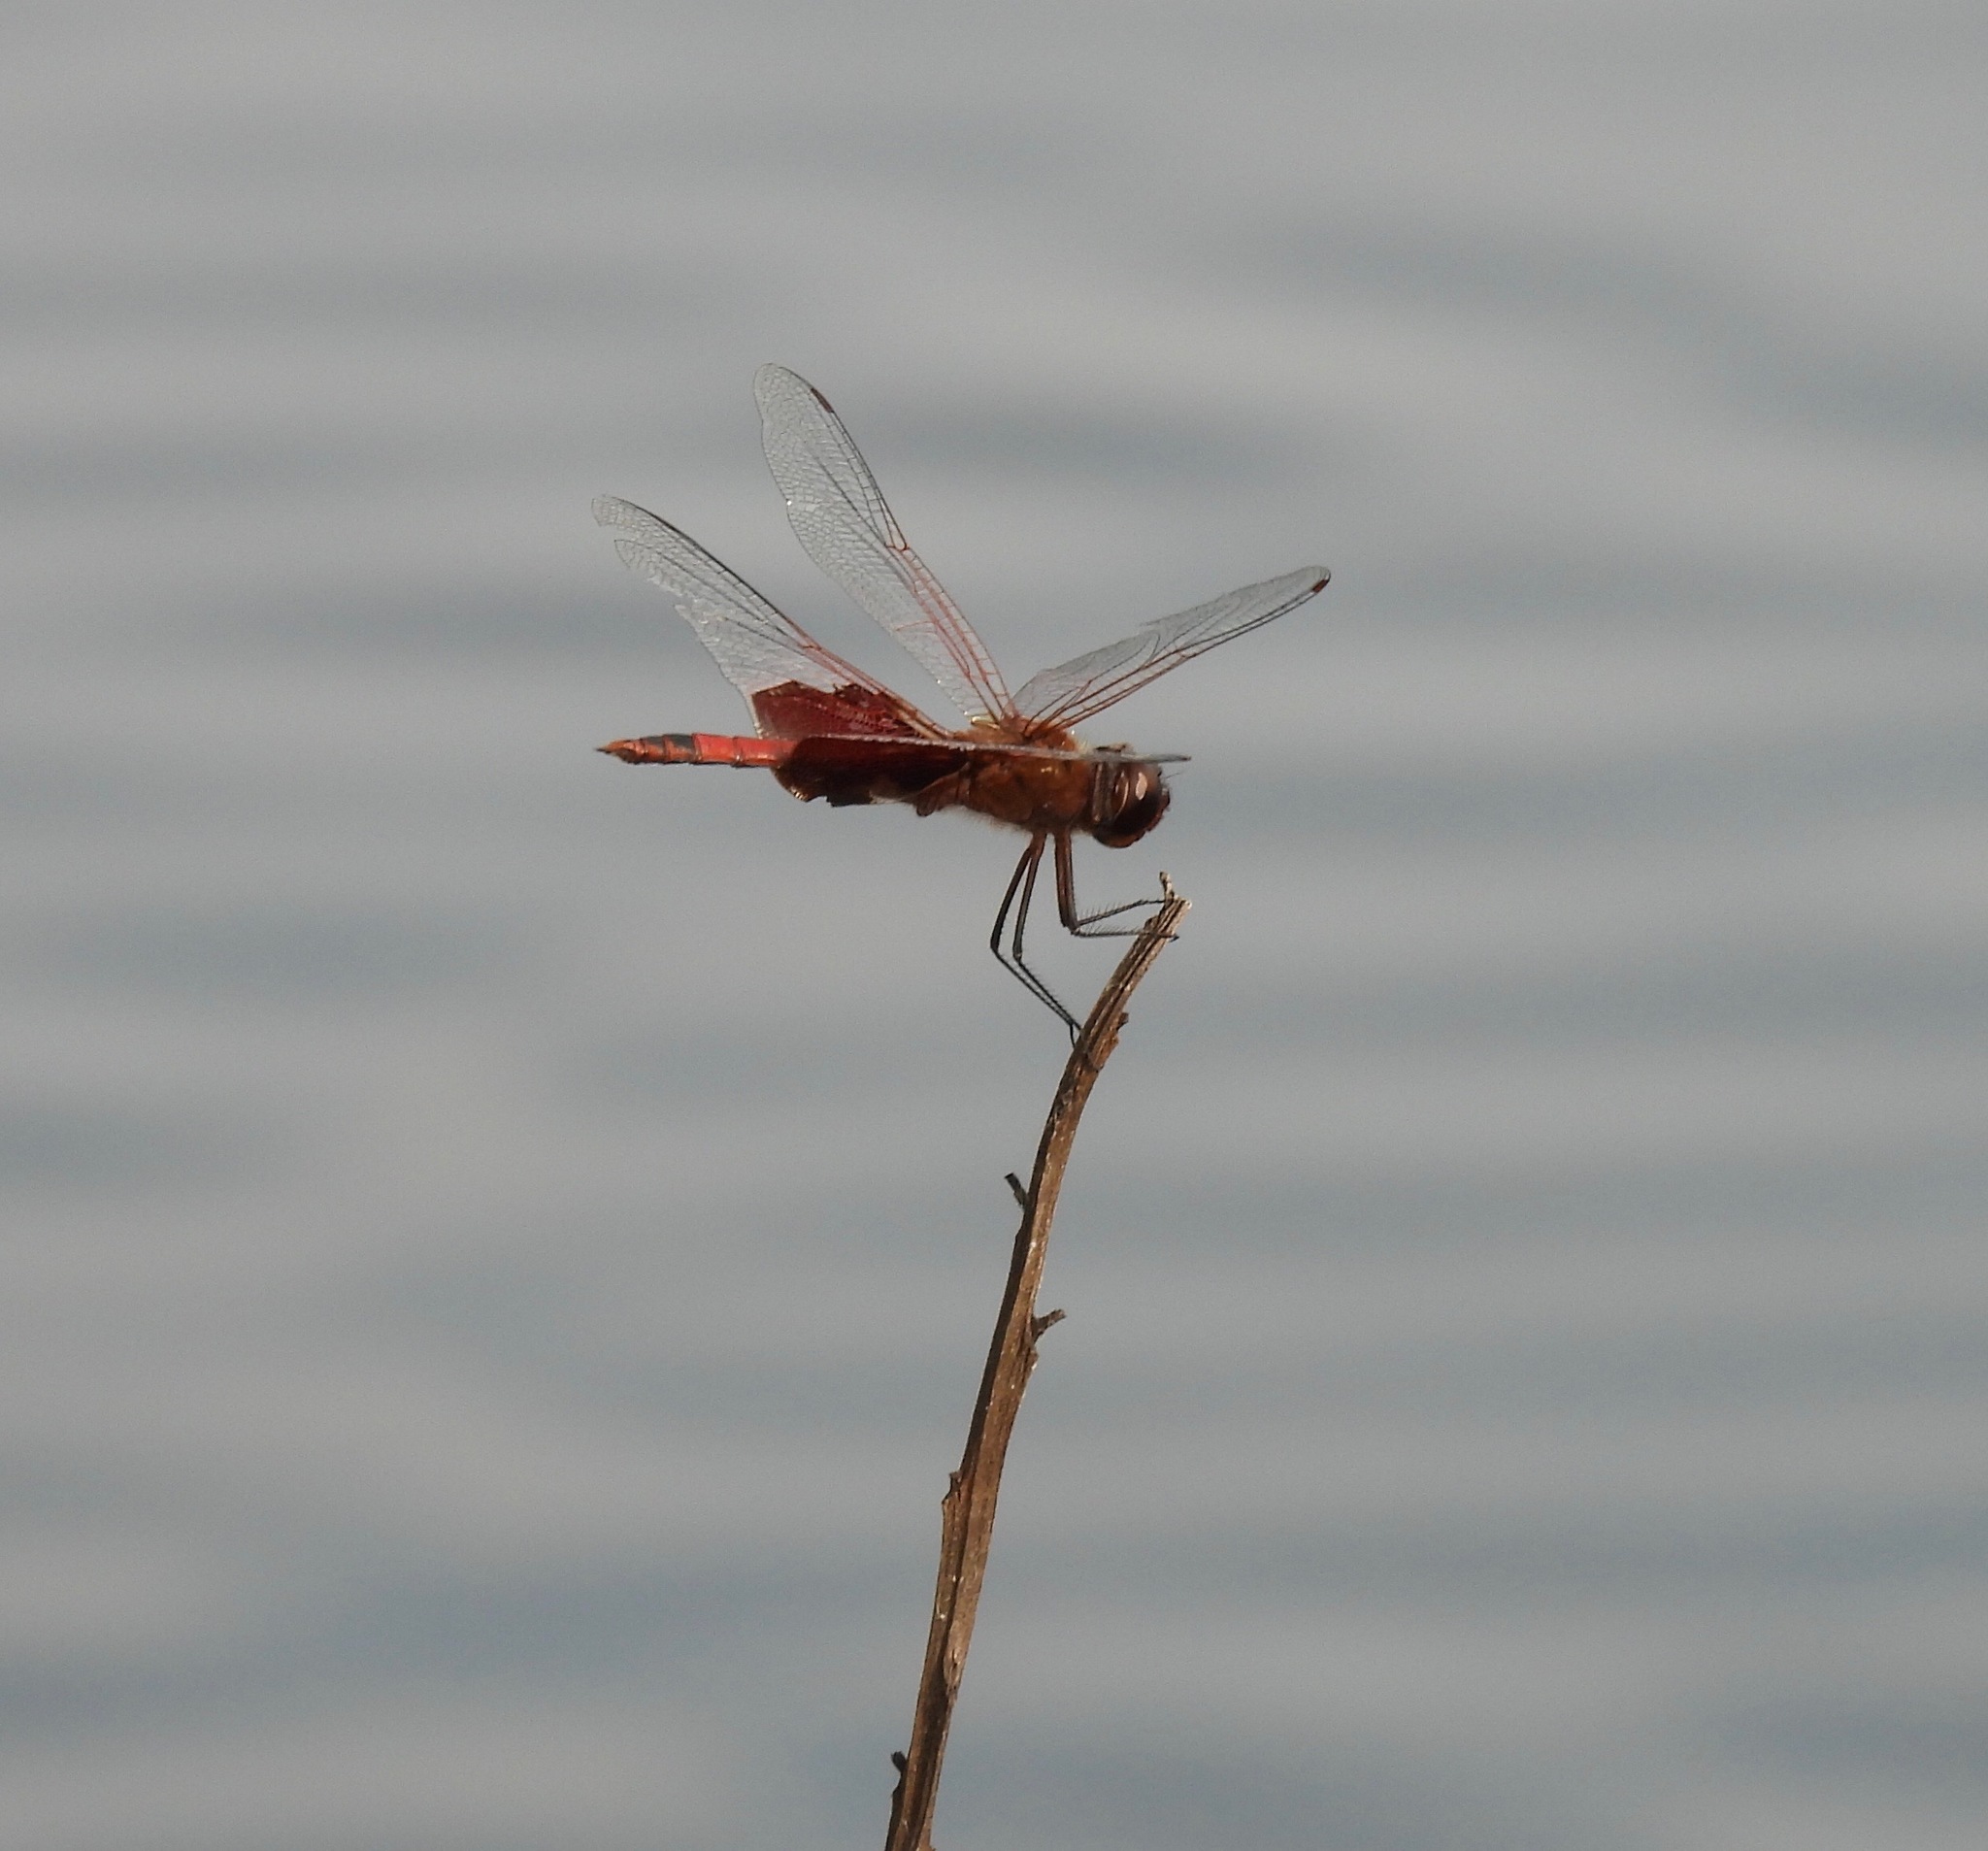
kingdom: Animalia
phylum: Arthropoda
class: Insecta
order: Odonata
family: Libellulidae
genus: Tramea
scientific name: Tramea onusta
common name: Red saddlebags
